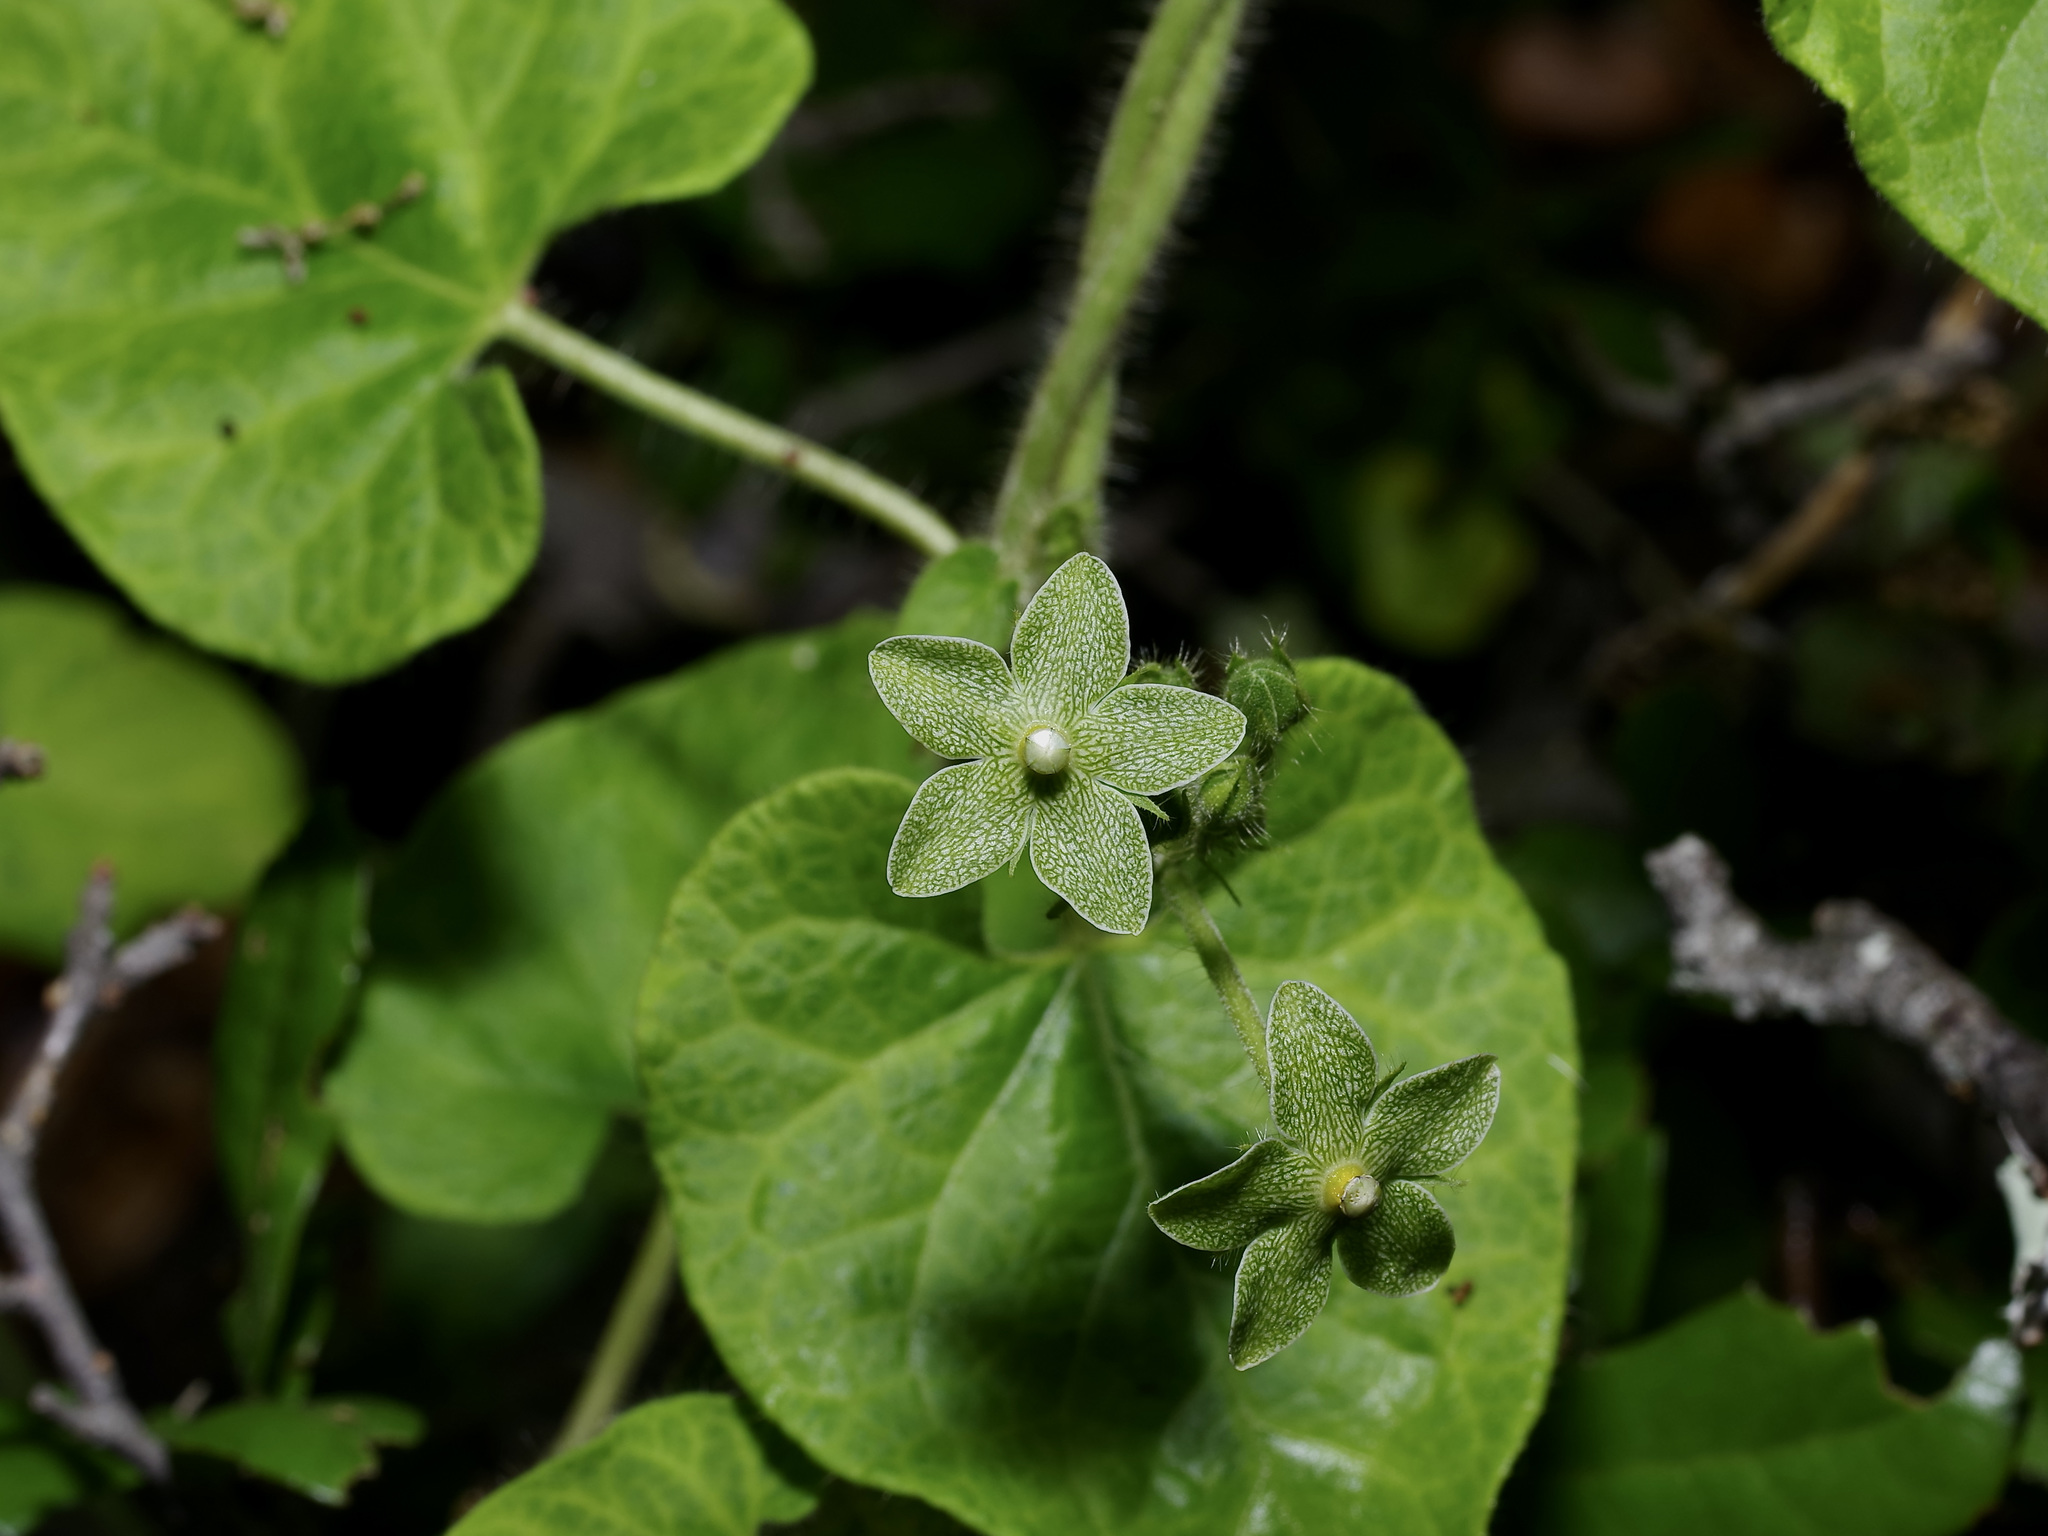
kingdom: Plantae
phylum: Tracheophyta
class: Magnoliopsida
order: Gentianales
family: Apocynaceae
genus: Dictyanthus
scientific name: Dictyanthus reticulatus
